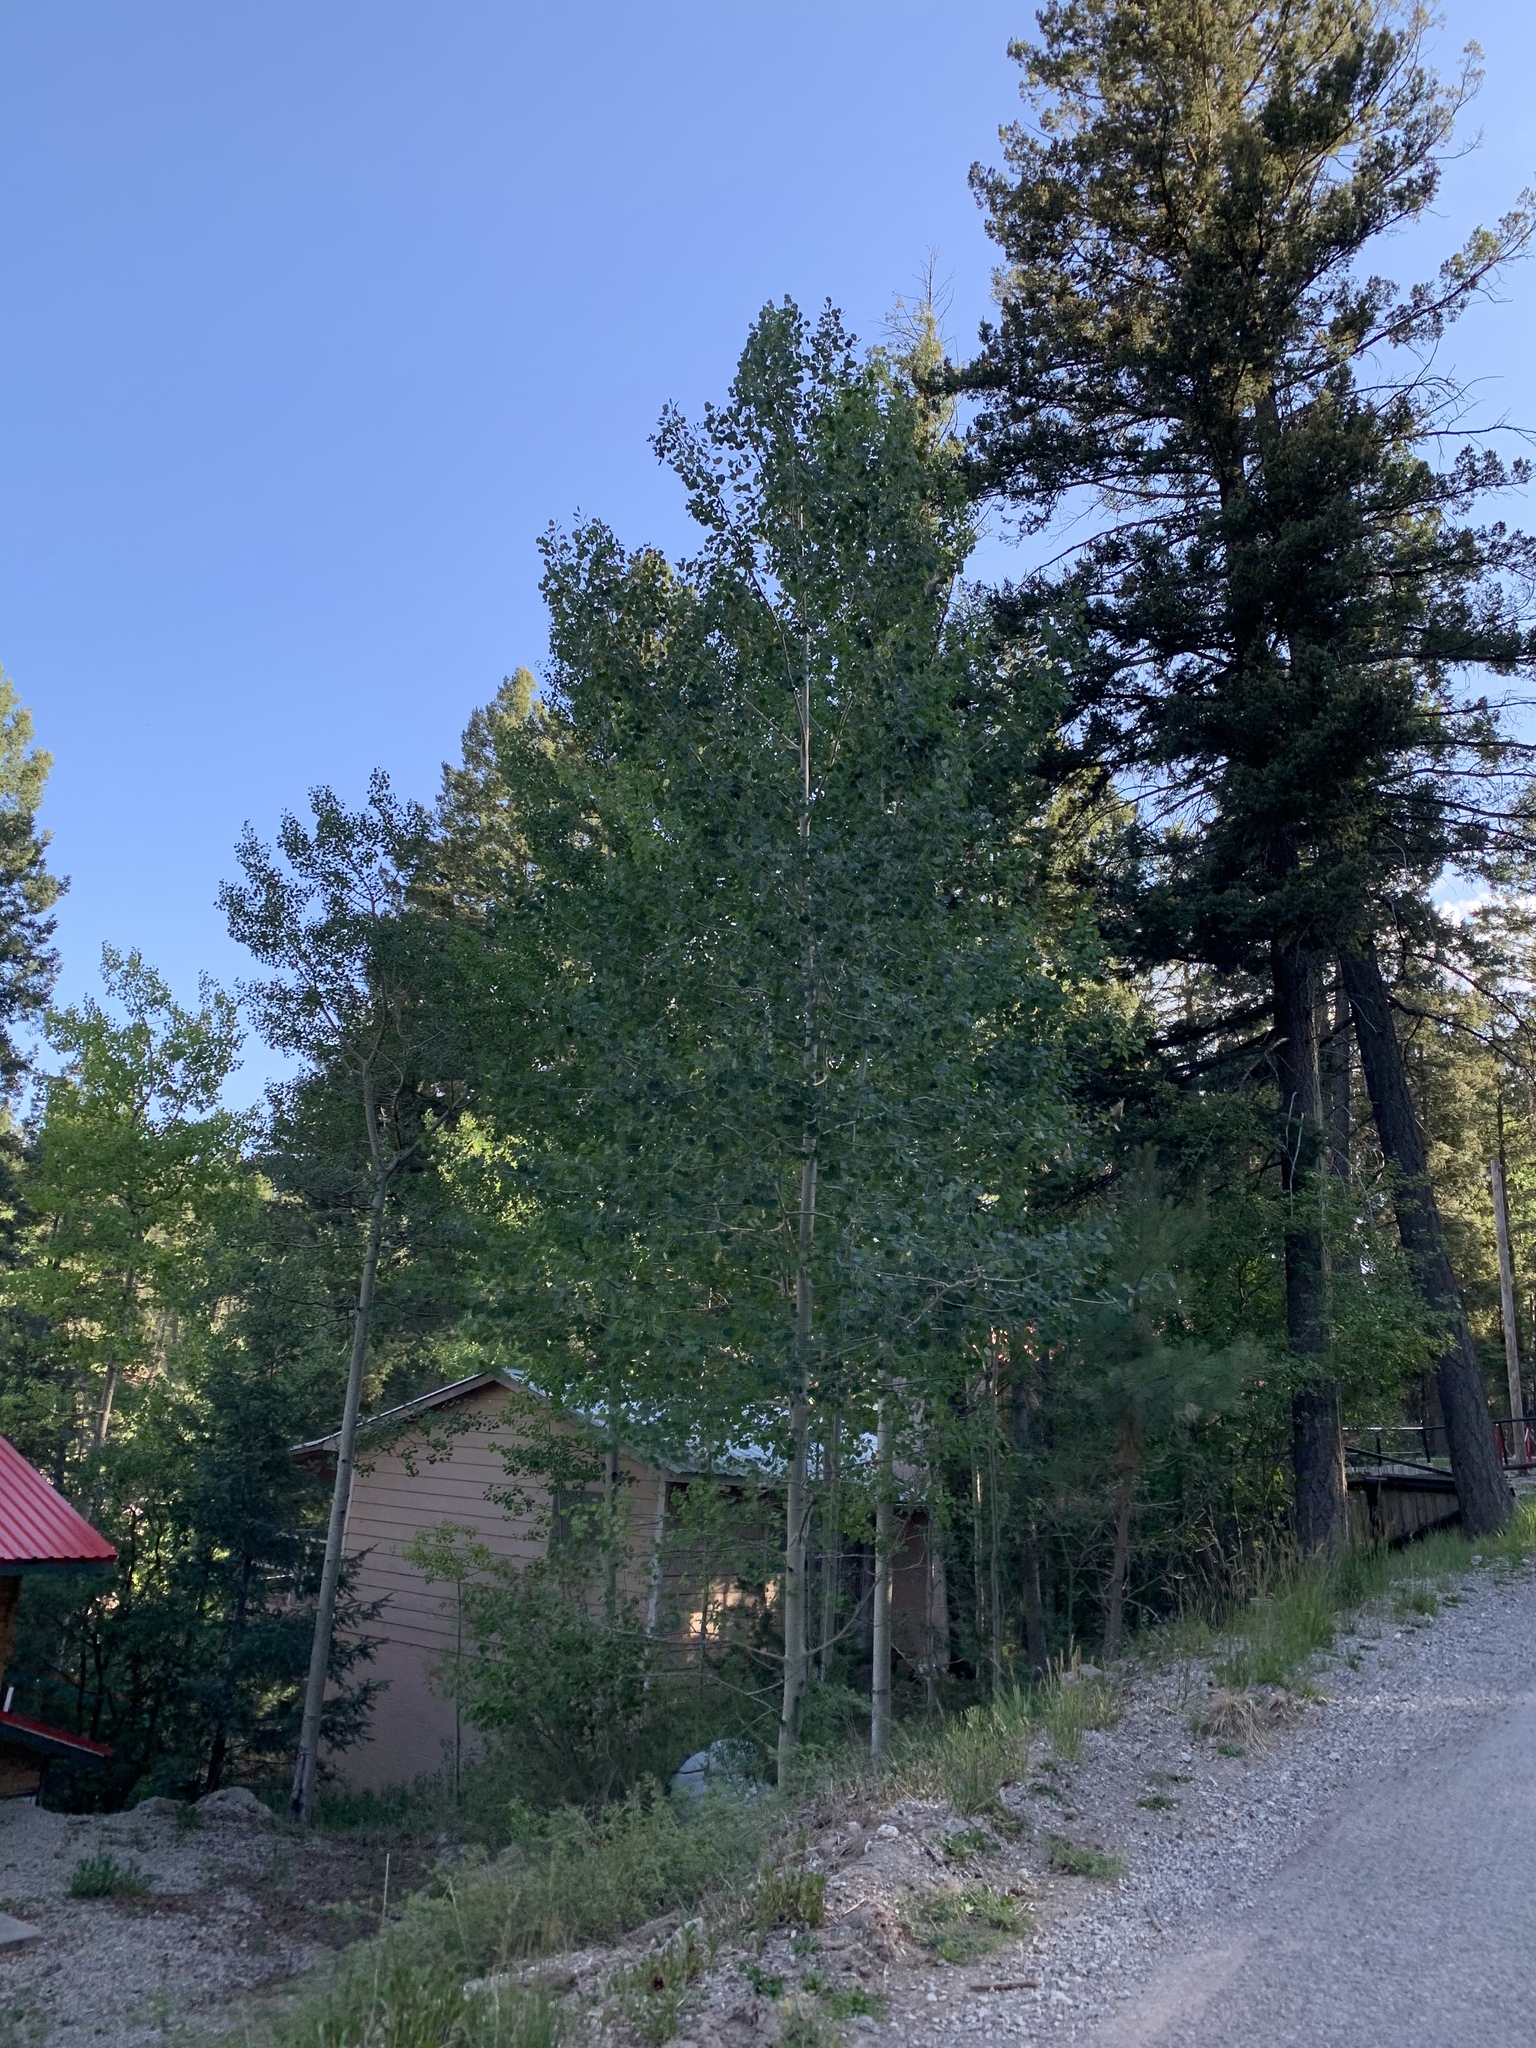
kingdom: Plantae
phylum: Tracheophyta
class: Magnoliopsida
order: Malpighiales
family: Salicaceae
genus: Populus
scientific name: Populus tremuloides
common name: Quaking aspen
